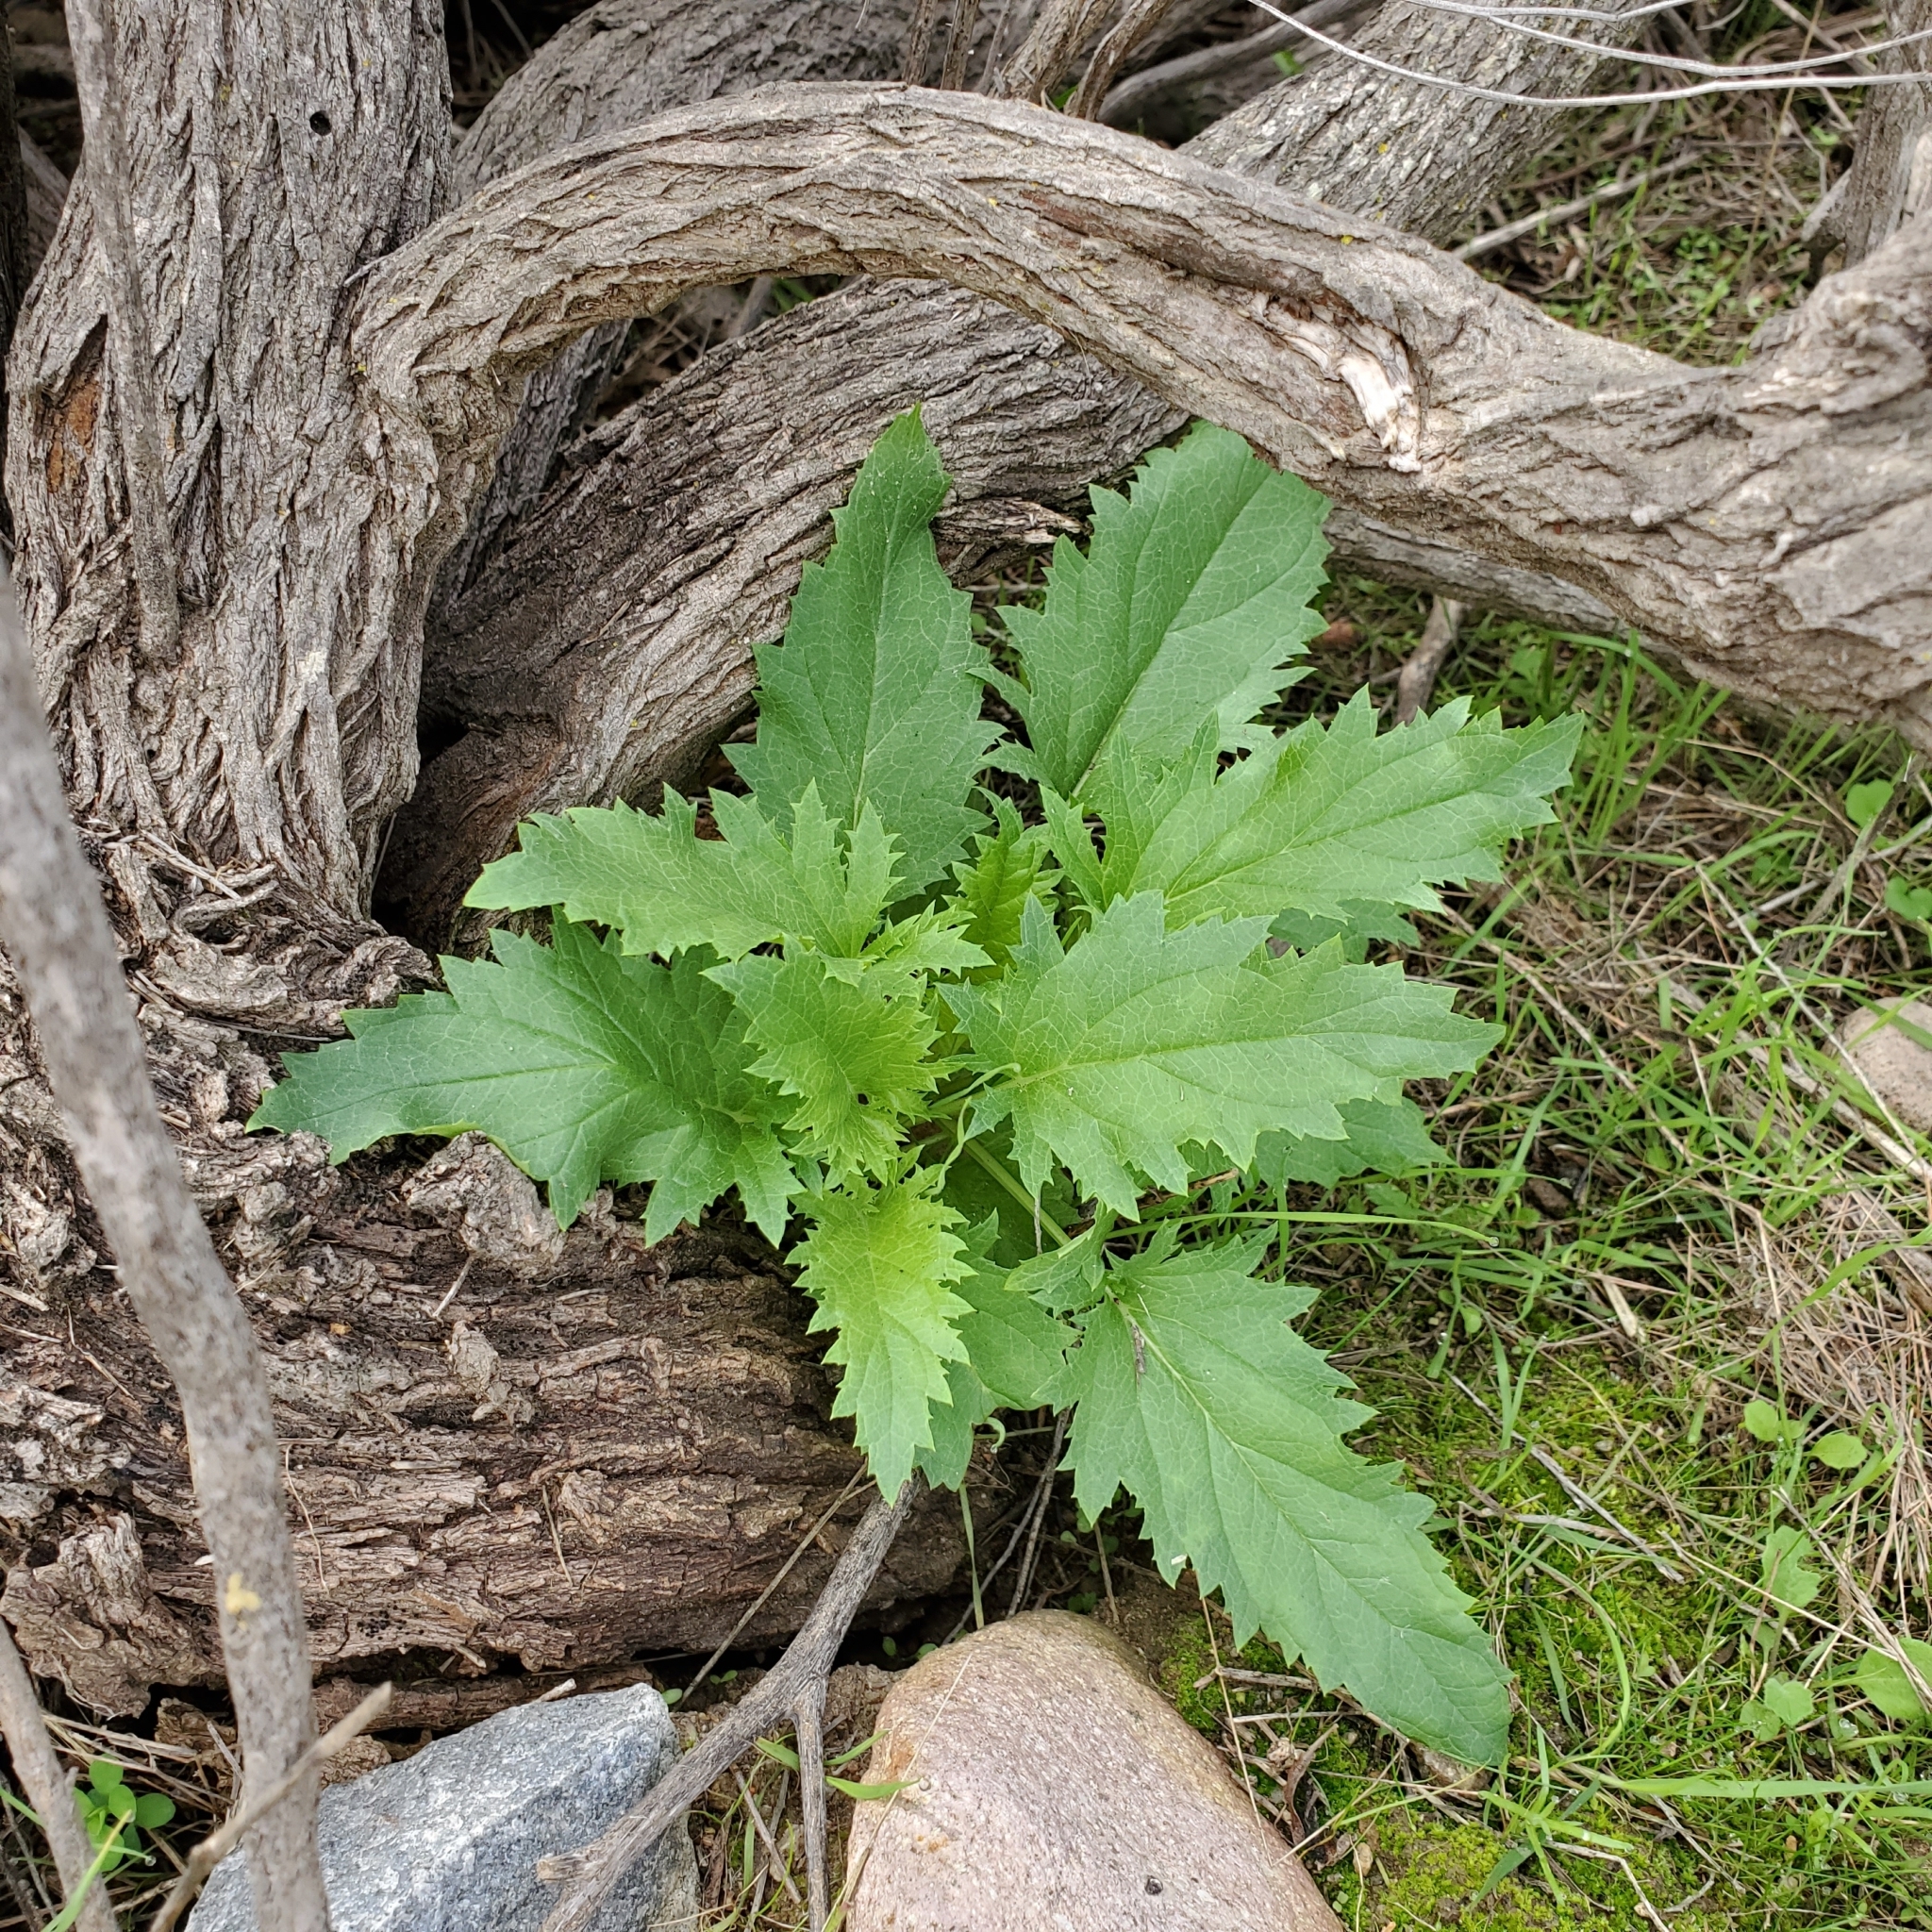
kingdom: Plantae
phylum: Tracheophyta
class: Magnoliopsida
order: Lamiales
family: Scrophulariaceae
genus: Scrophularia
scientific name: Scrophularia californica
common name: California figwort
